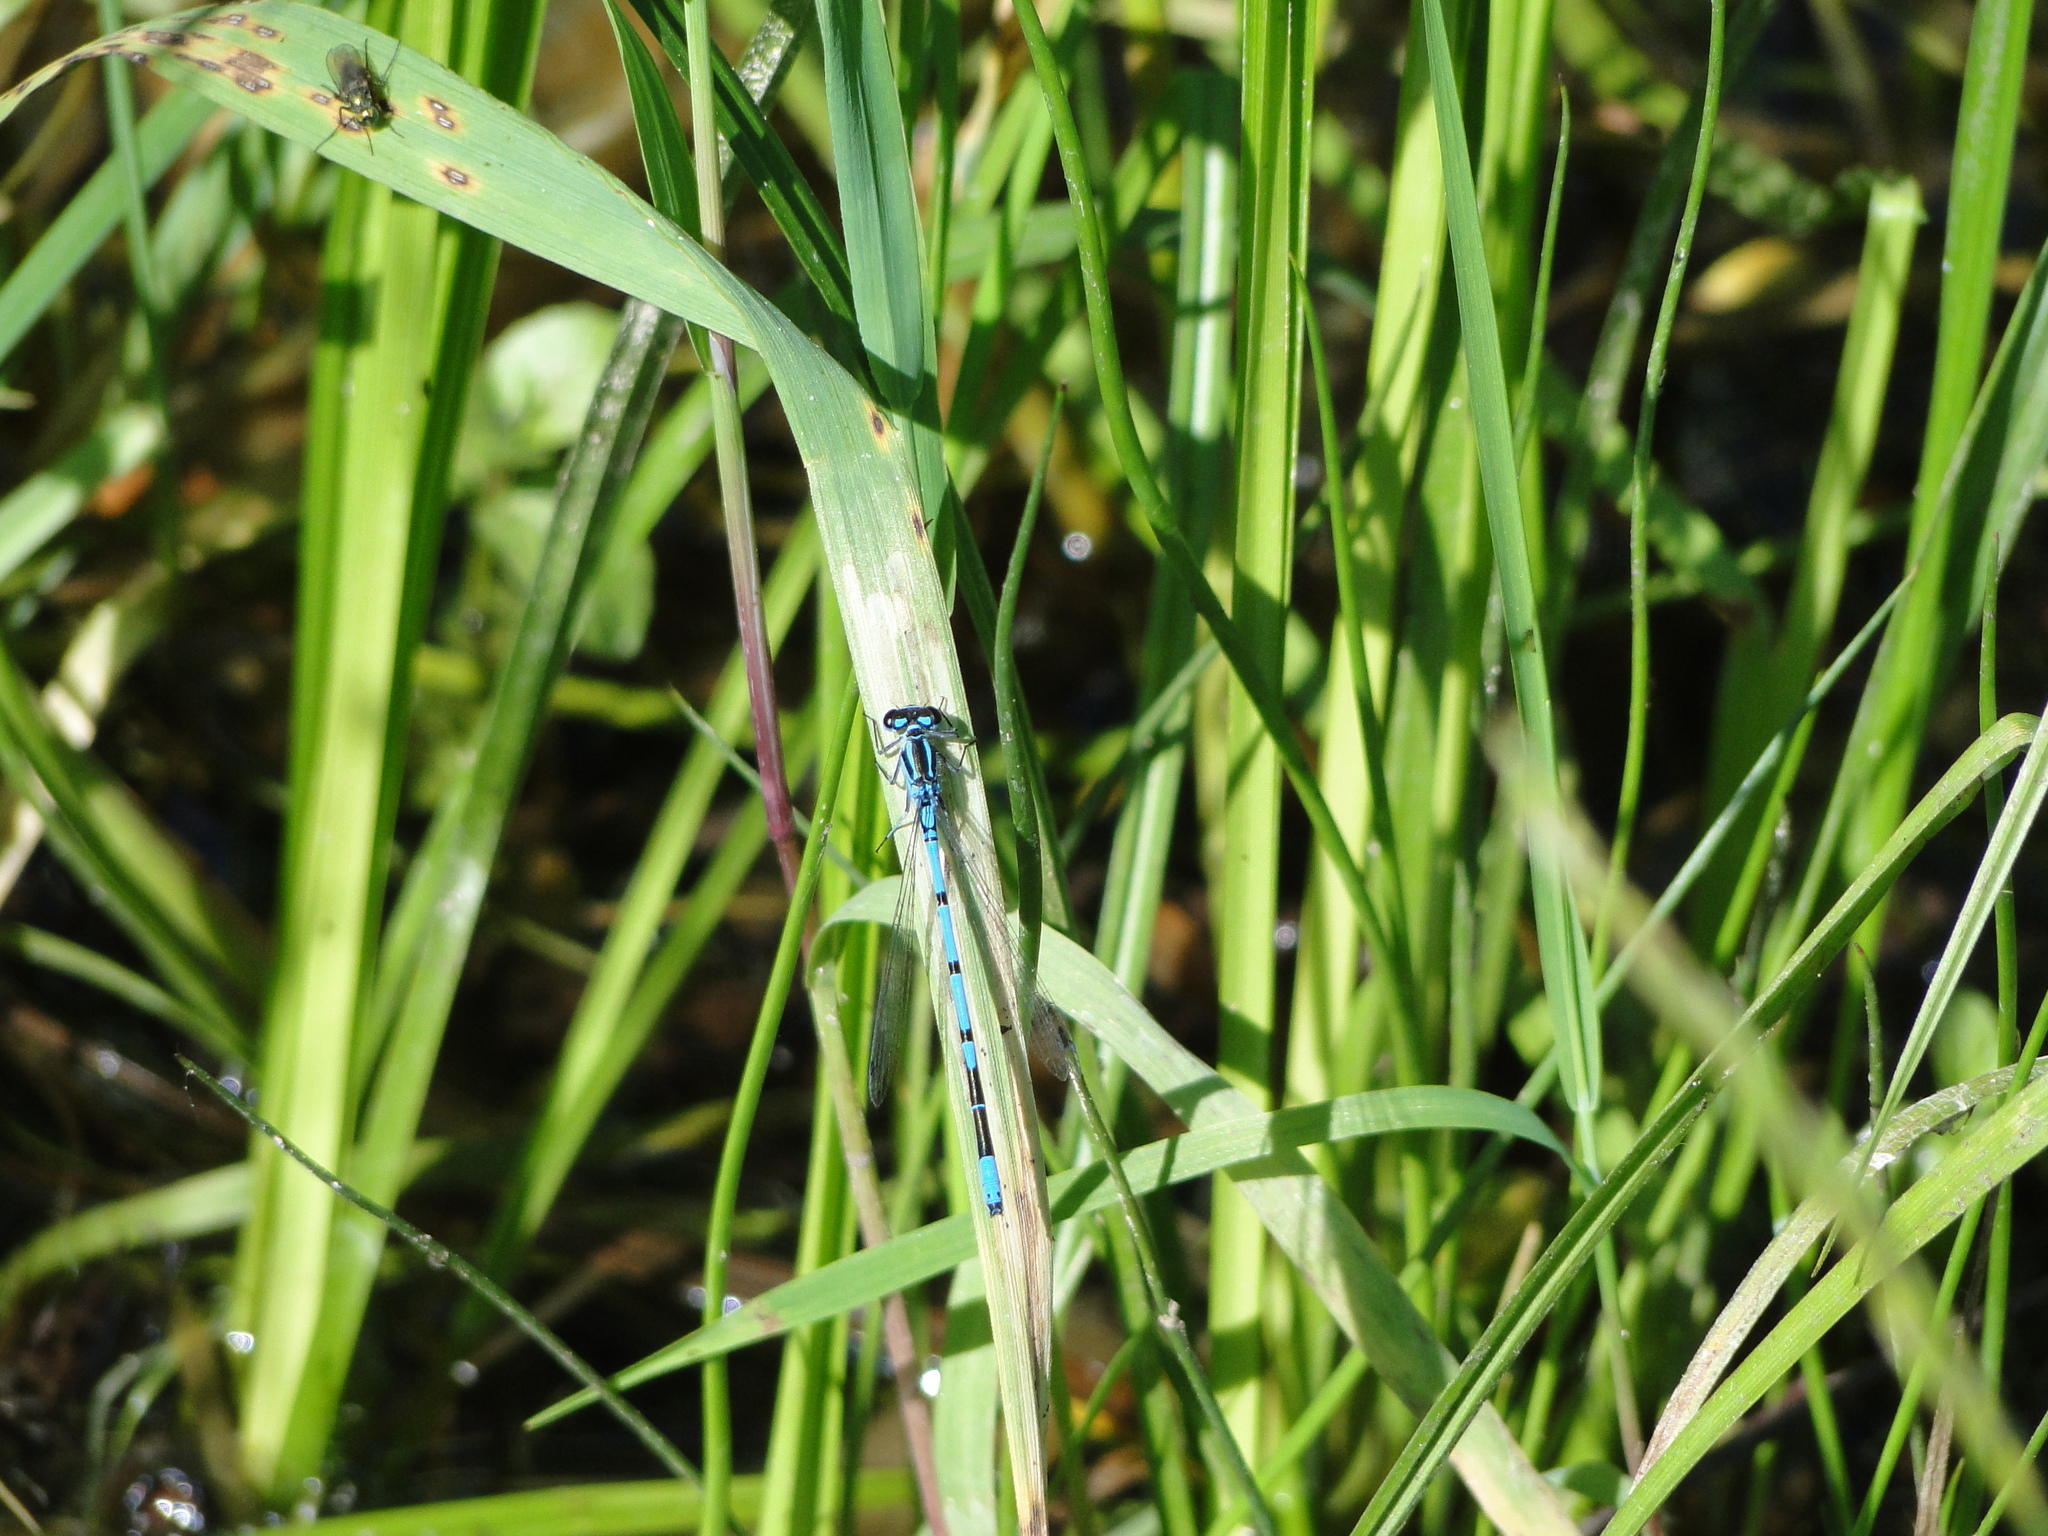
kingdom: Animalia
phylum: Arthropoda
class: Insecta
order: Odonata
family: Coenagrionidae
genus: Coenagrion
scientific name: Coenagrion puella
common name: Azure damselfly
